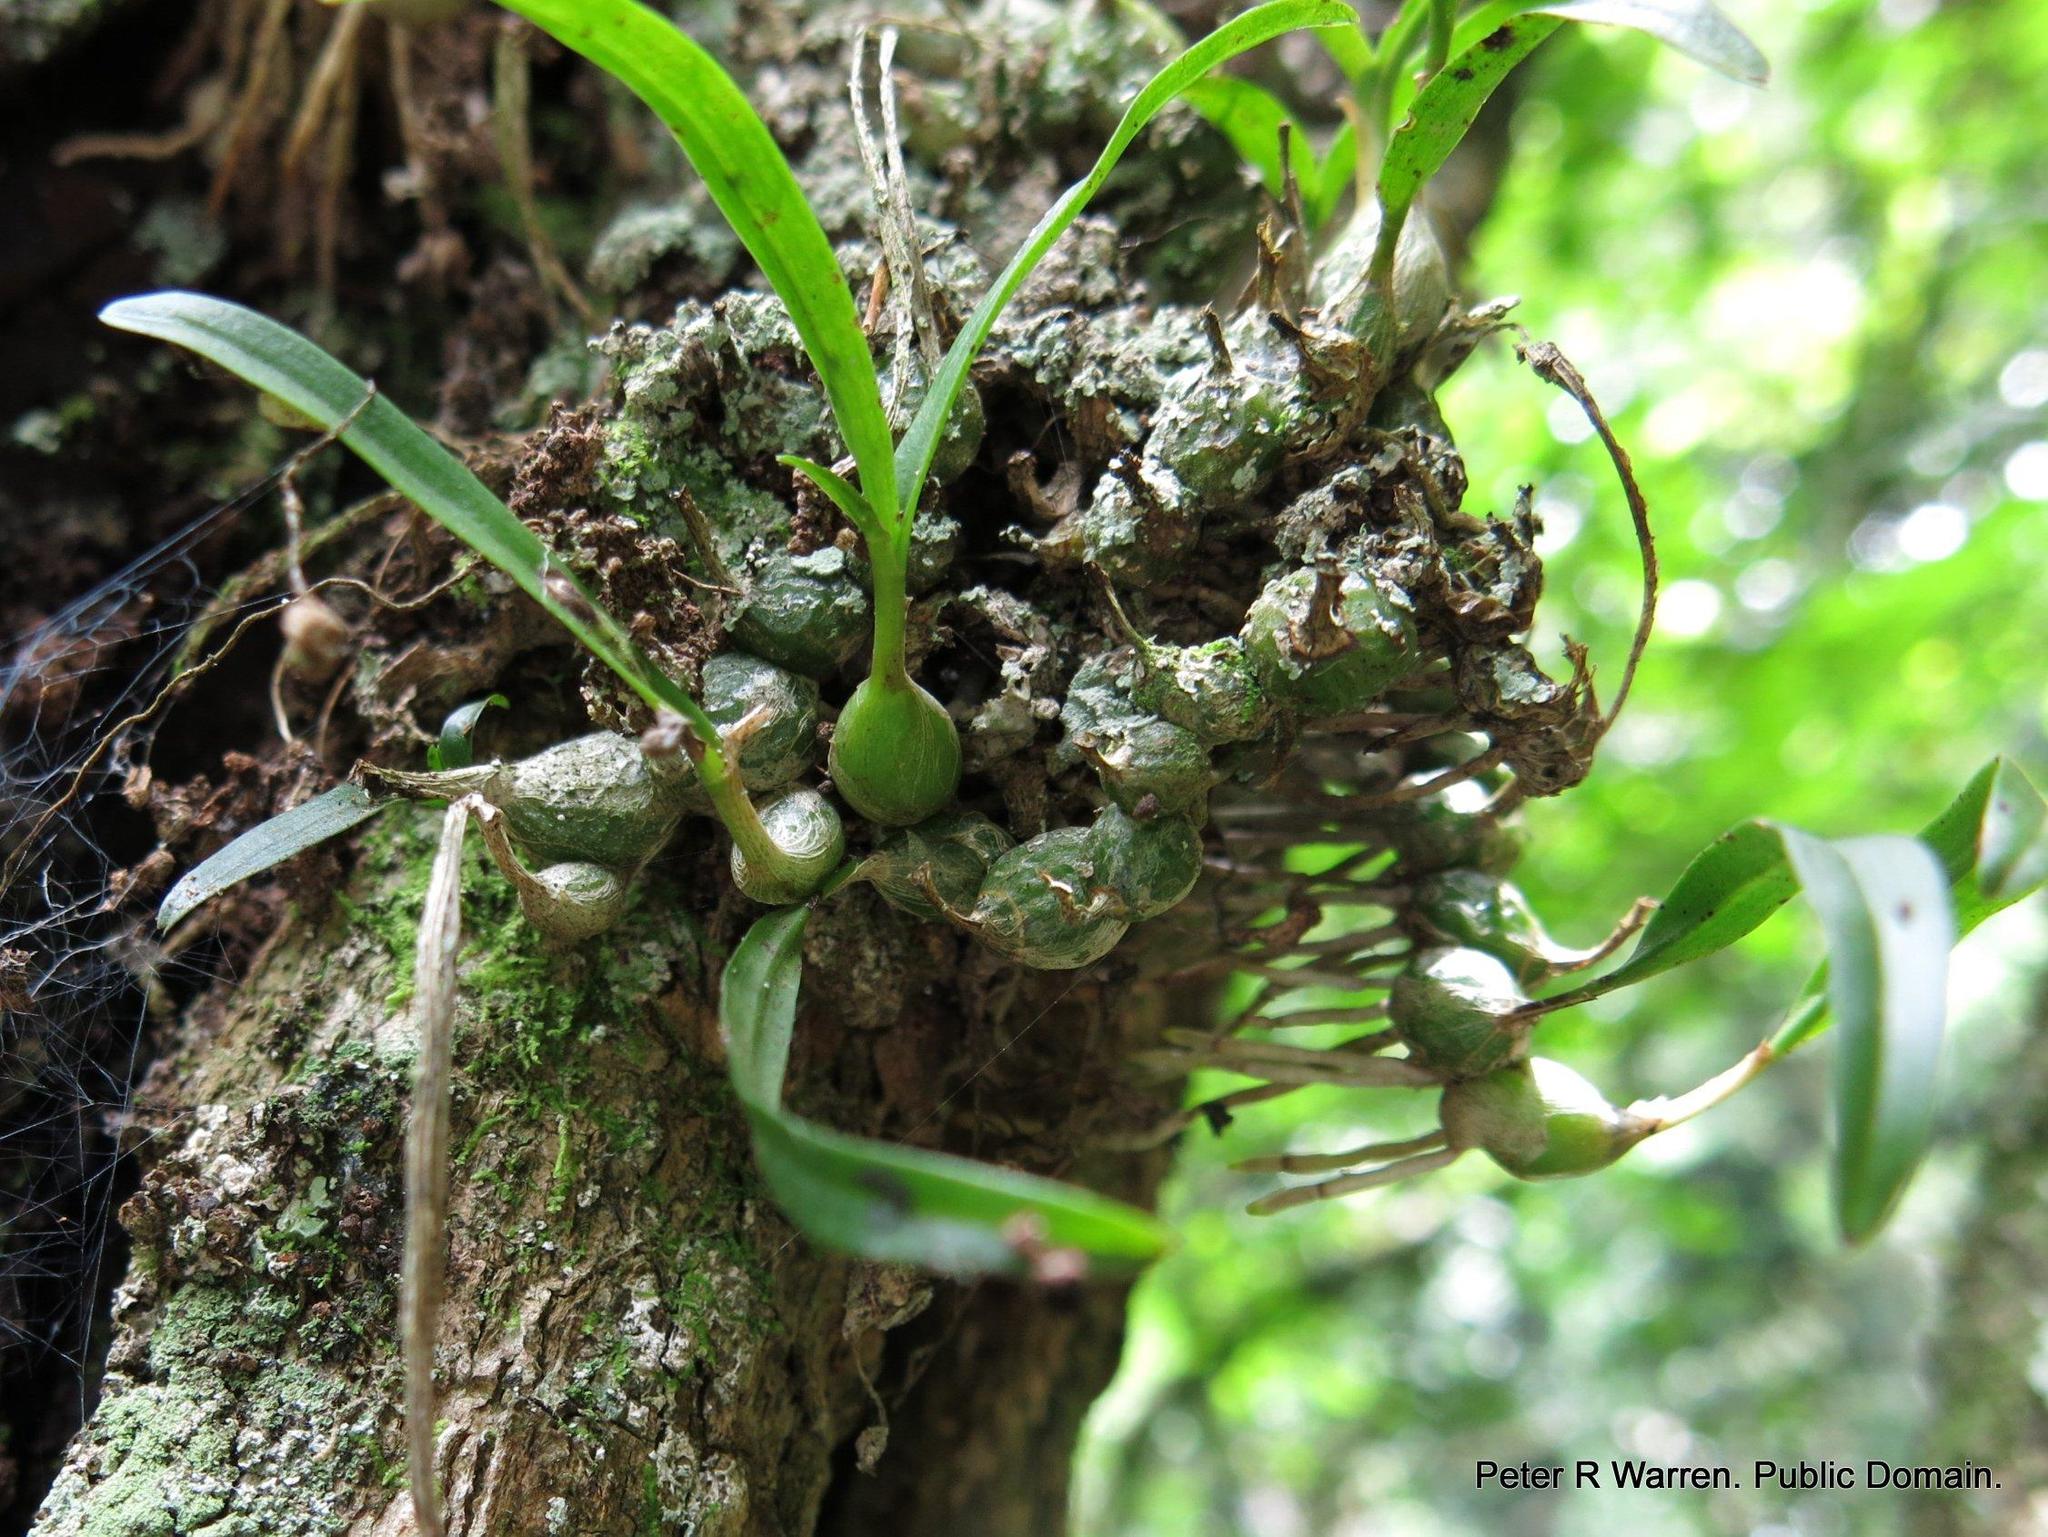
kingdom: Plantae
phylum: Tracheophyta
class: Liliopsida
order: Asparagales
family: Orchidaceae
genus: Polystachya
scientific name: Polystachya ottoniana
